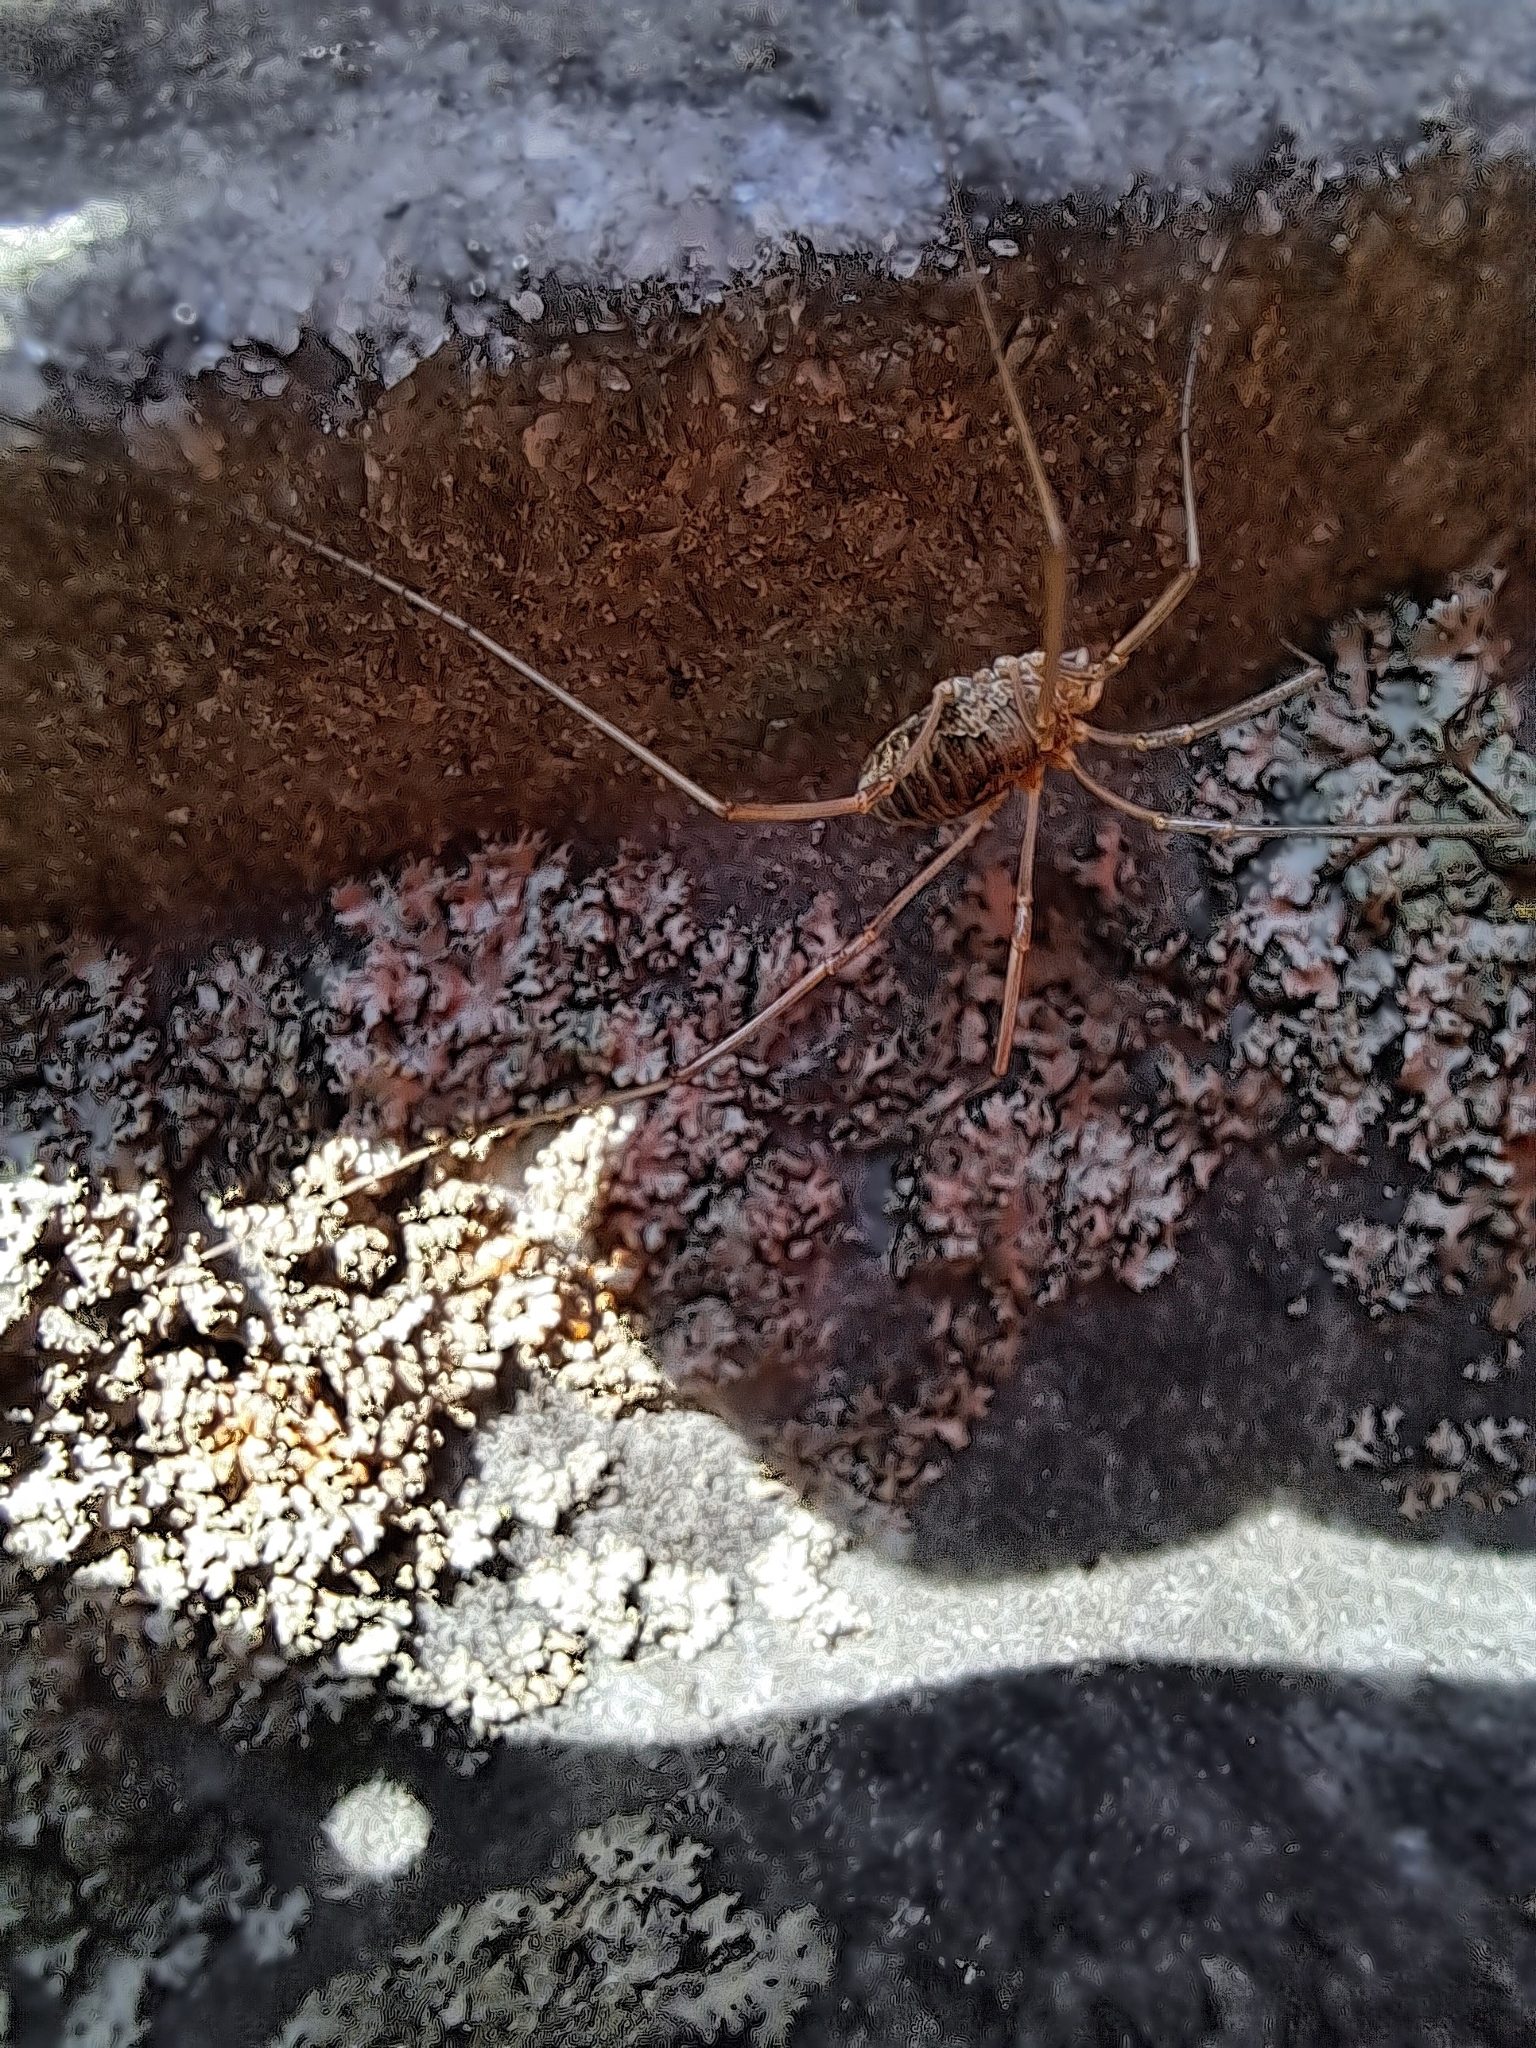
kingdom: Animalia
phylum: Arthropoda
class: Arachnida
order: Opiliones
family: Phalangiidae
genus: Phalangium
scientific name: Phalangium opilio
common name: Daddy longleg
